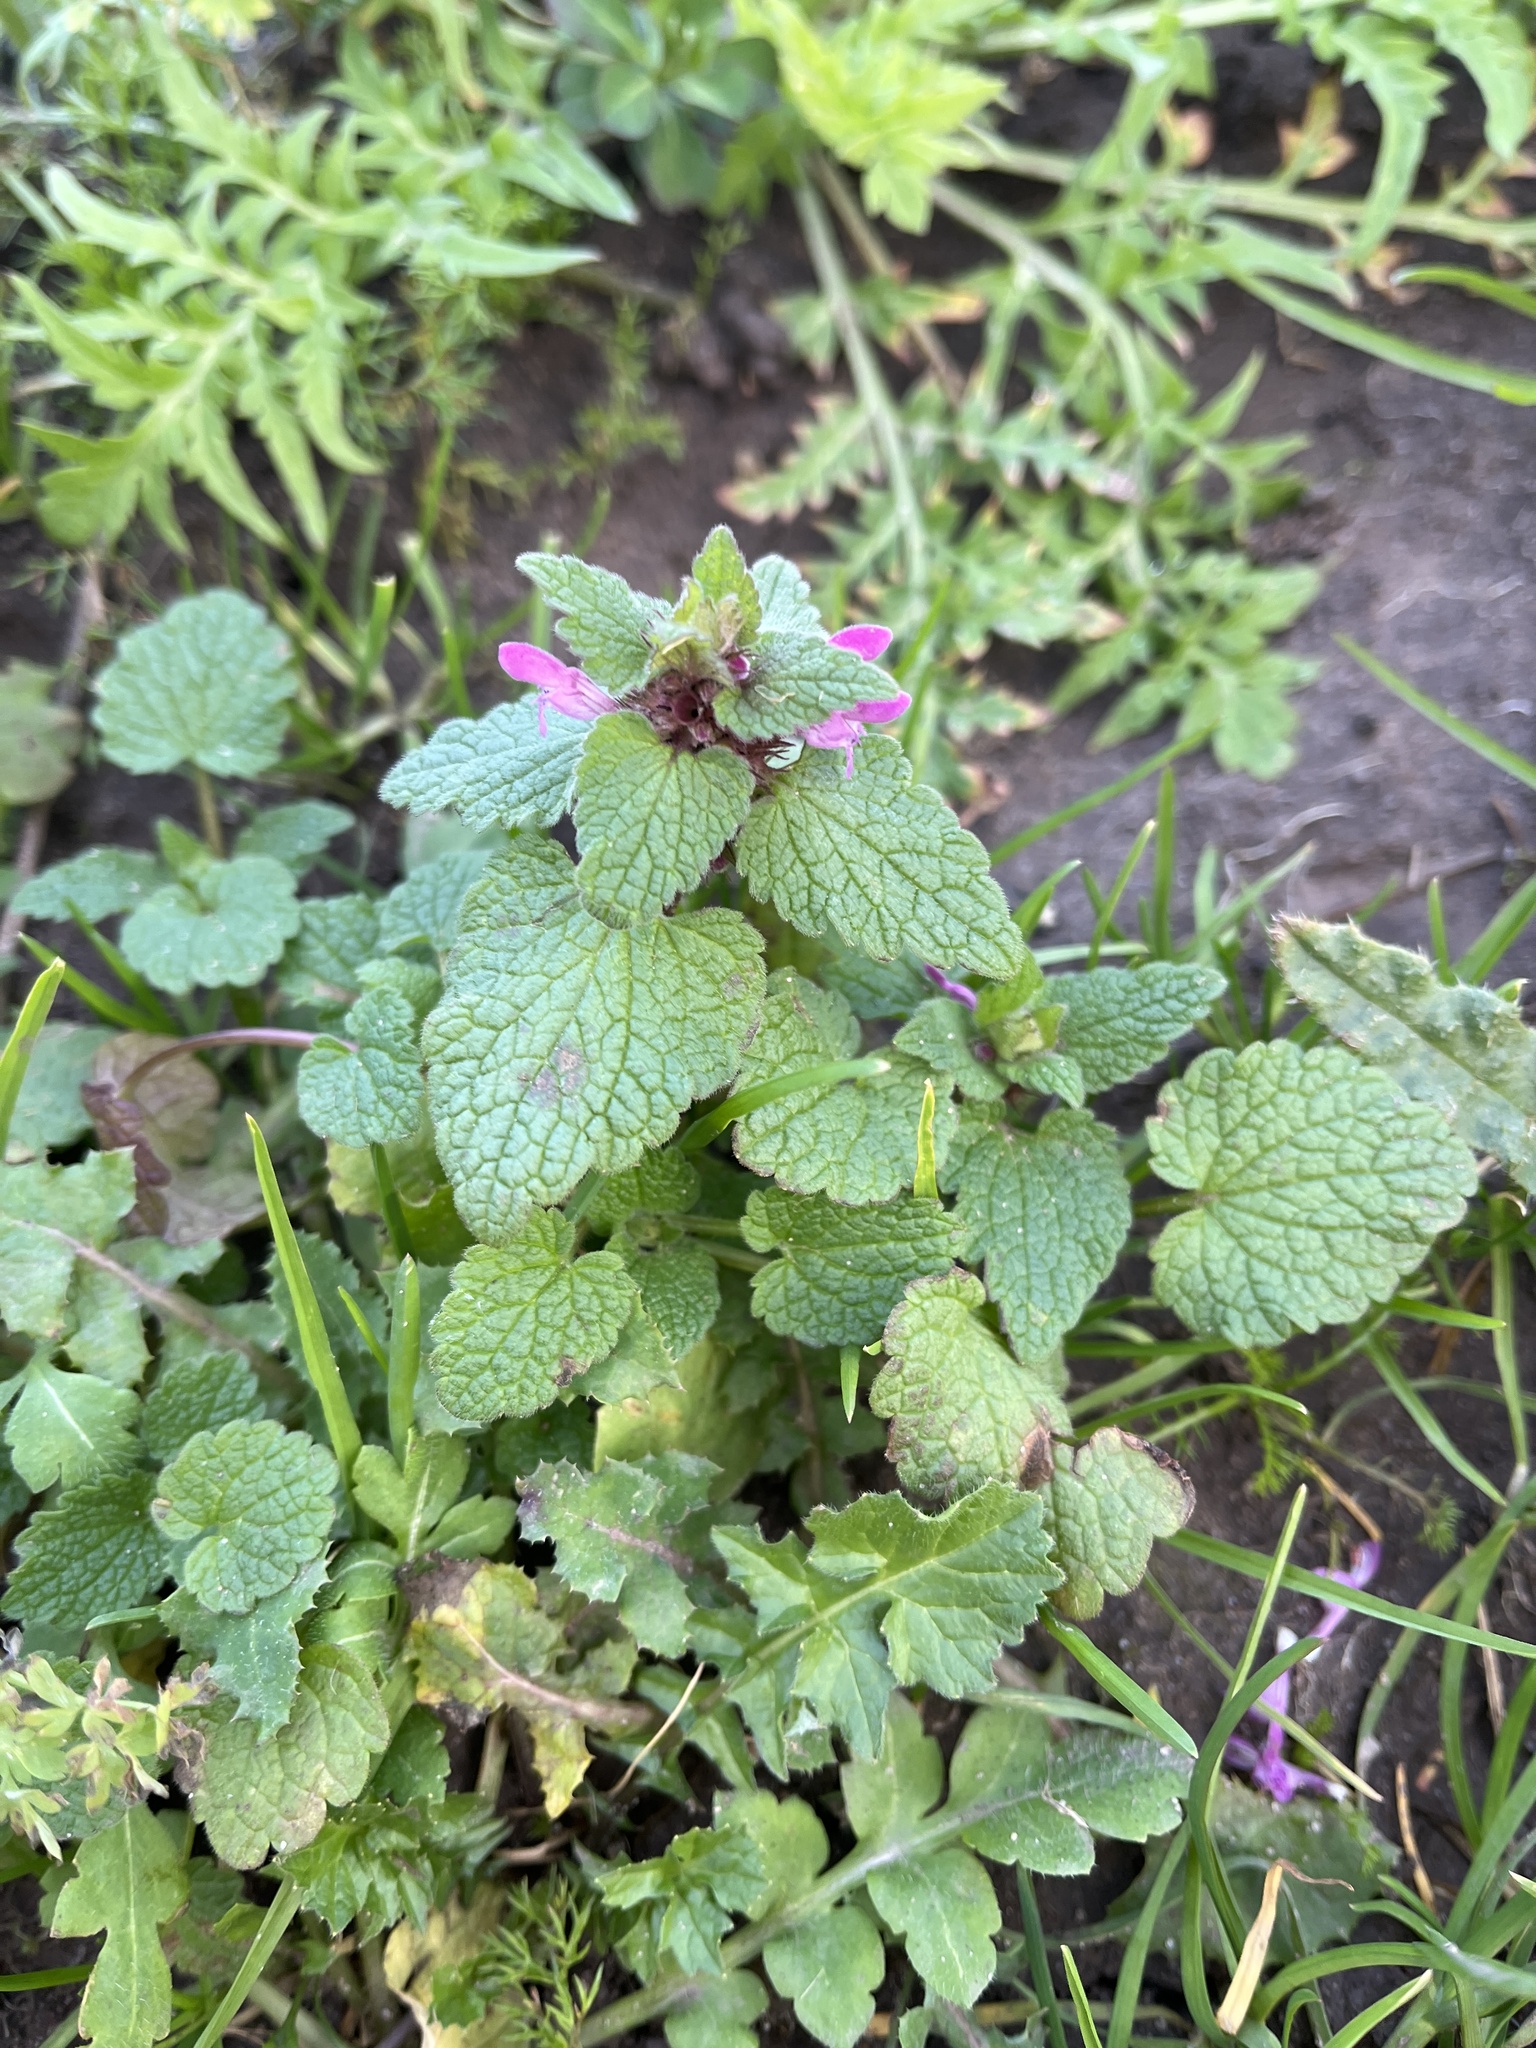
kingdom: Plantae
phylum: Tracheophyta
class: Magnoliopsida
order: Lamiales
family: Lamiaceae
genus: Lamium
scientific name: Lamium purpureum
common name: Red dead-nettle
